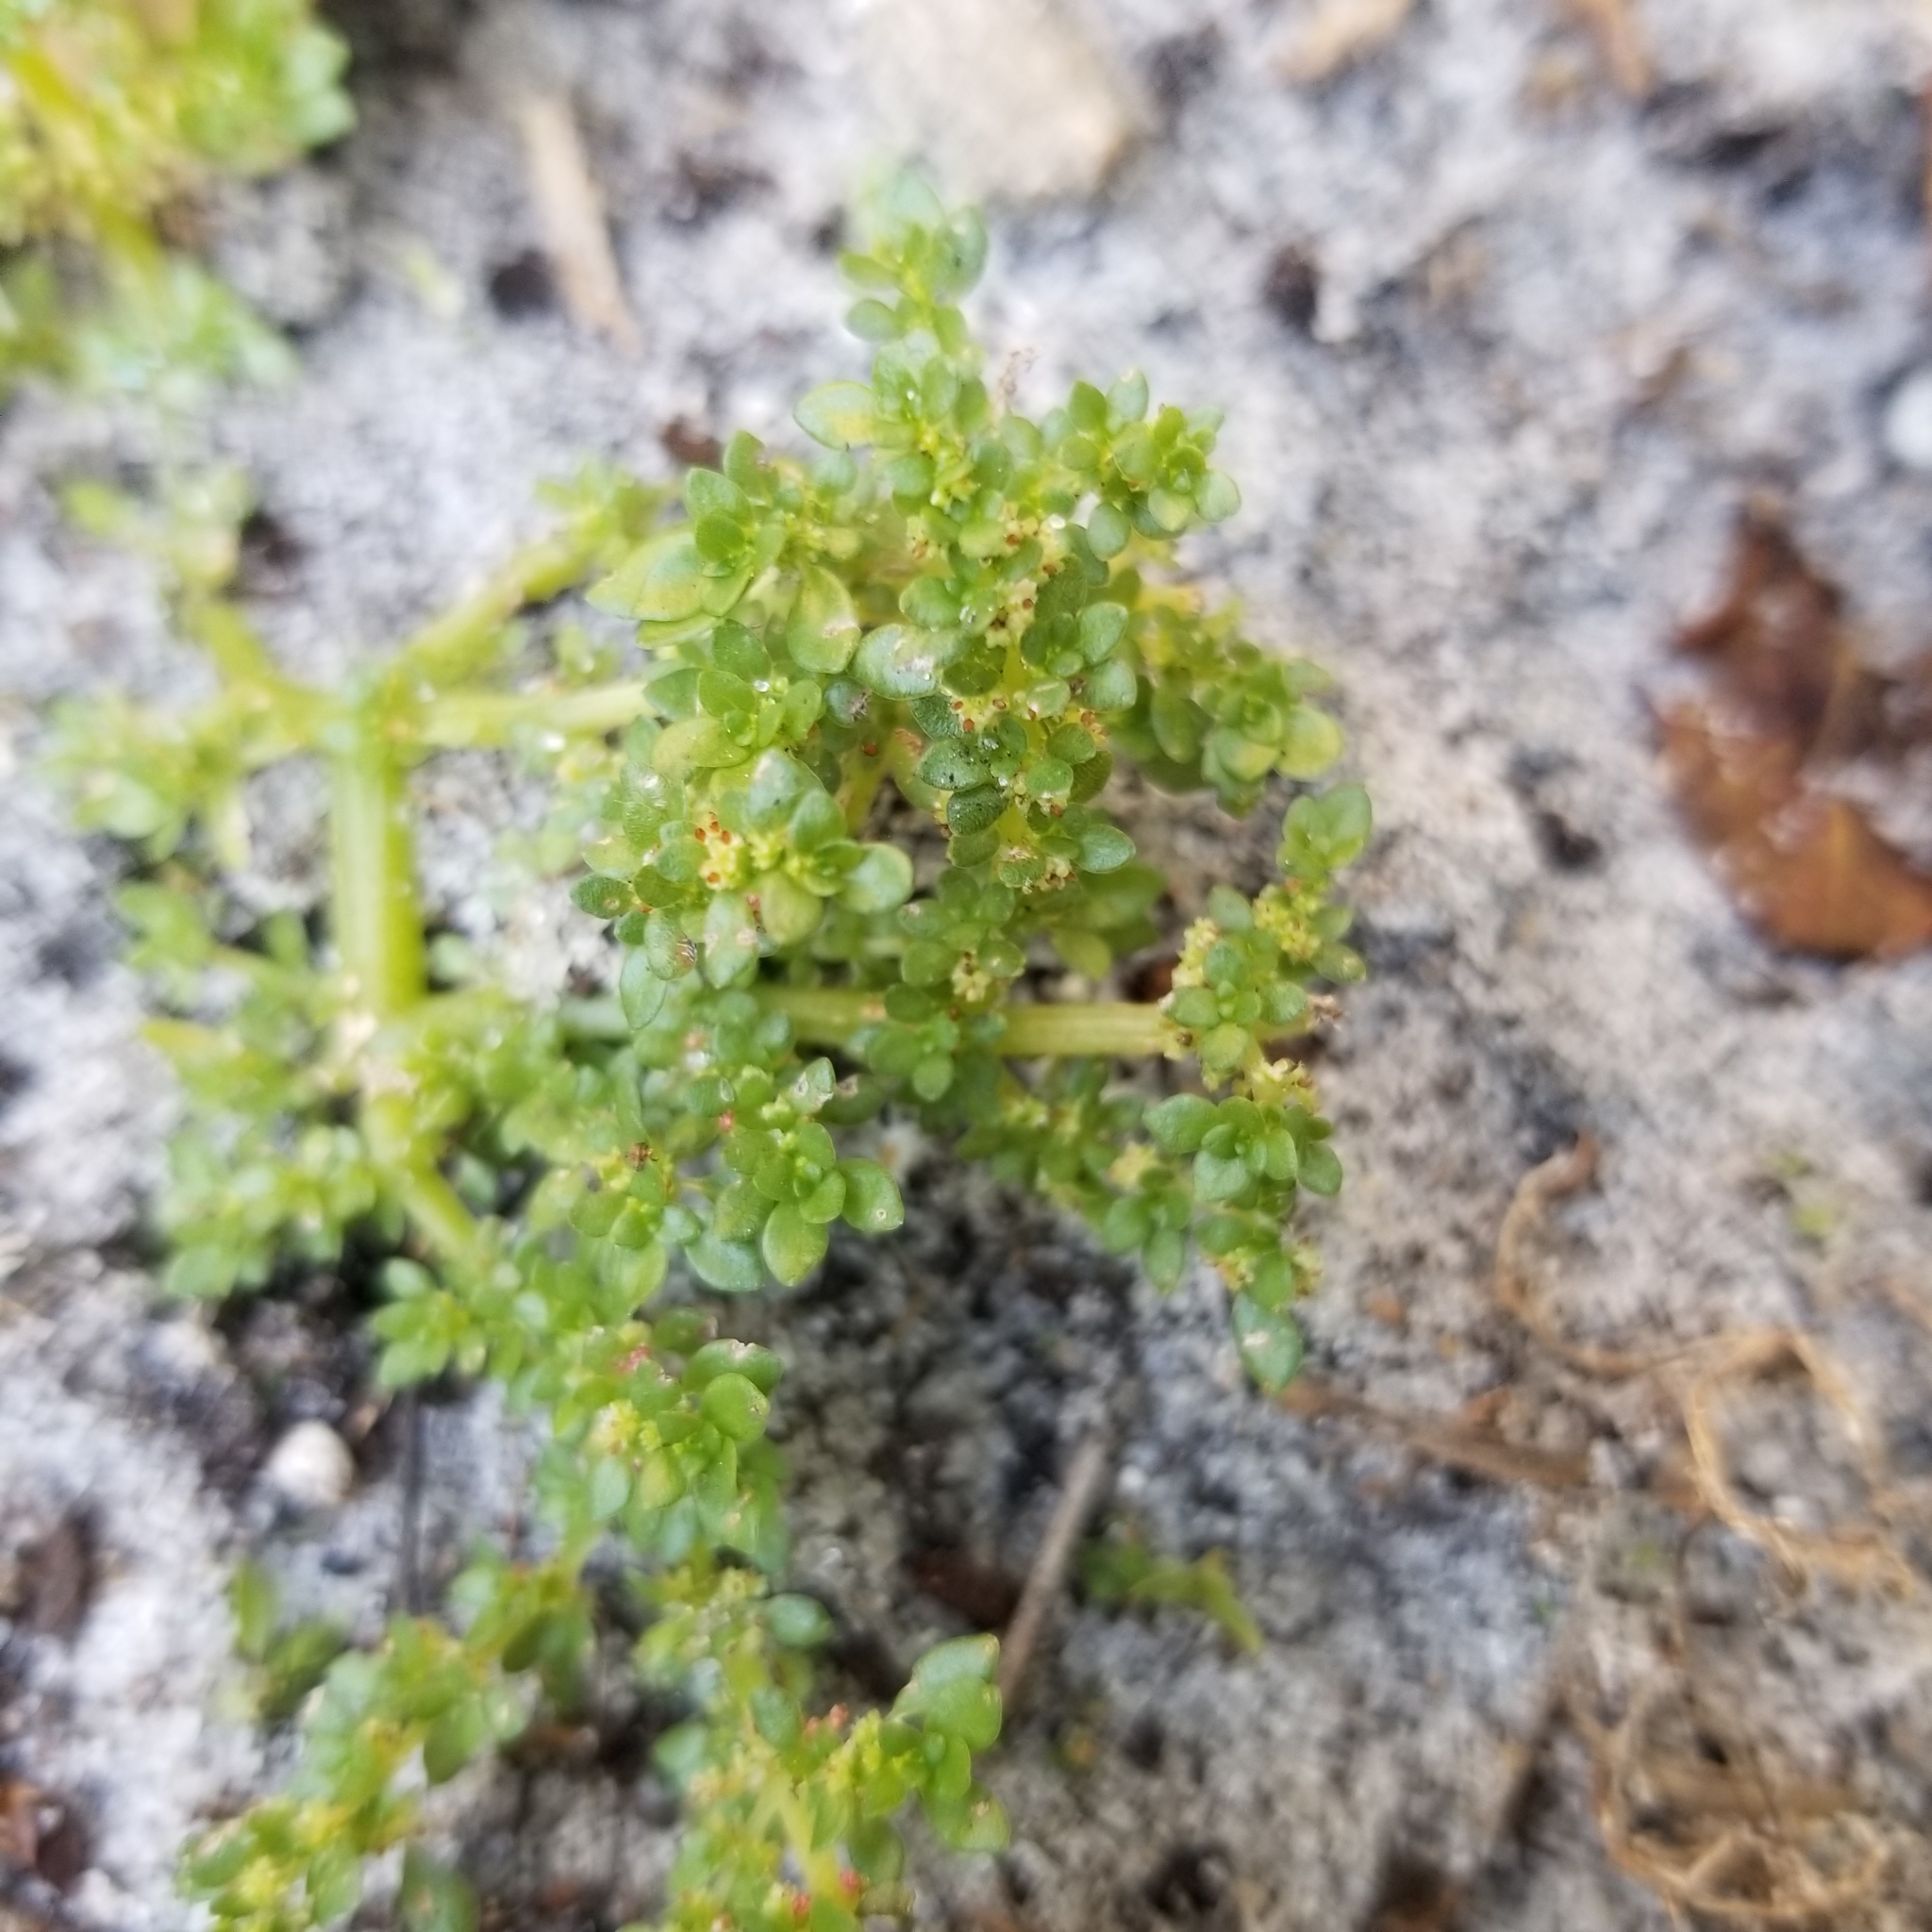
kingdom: Plantae
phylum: Tracheophyta
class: Magnoliopsida
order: Rosales
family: Urticaceae
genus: Pilea
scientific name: Pilea microphylla
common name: Artillery-plant
